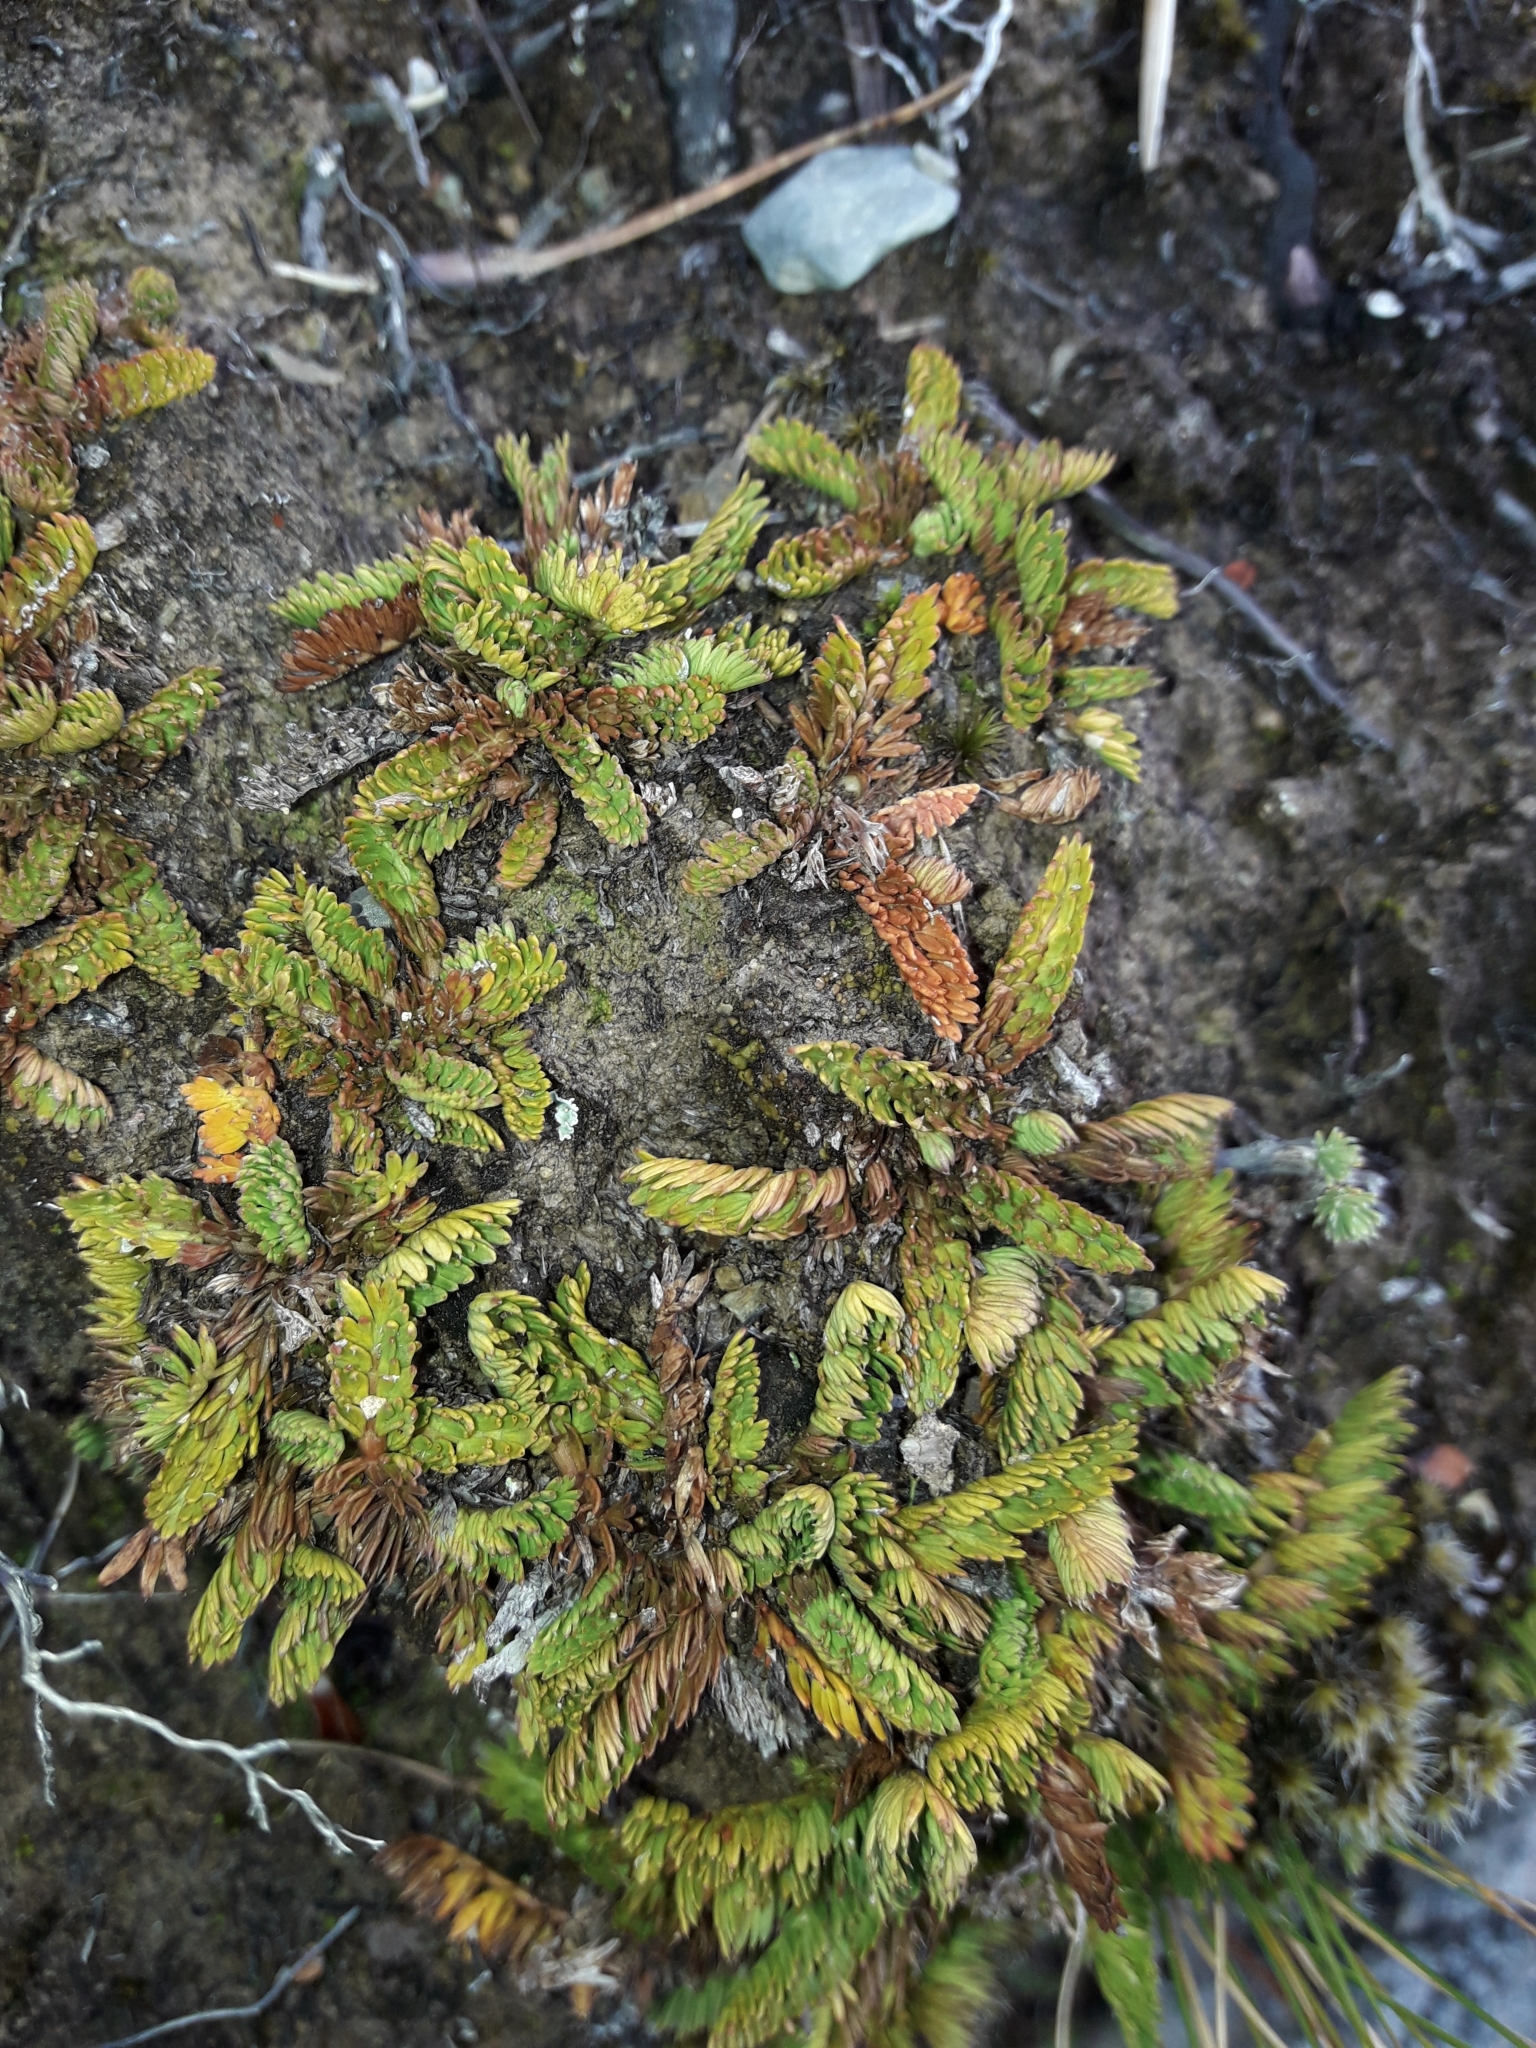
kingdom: Plantae
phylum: Tracheophyta
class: Magnoliopsida
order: Apiales
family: Apiaceae
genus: Anisotome
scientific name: Anisotome imbricata
